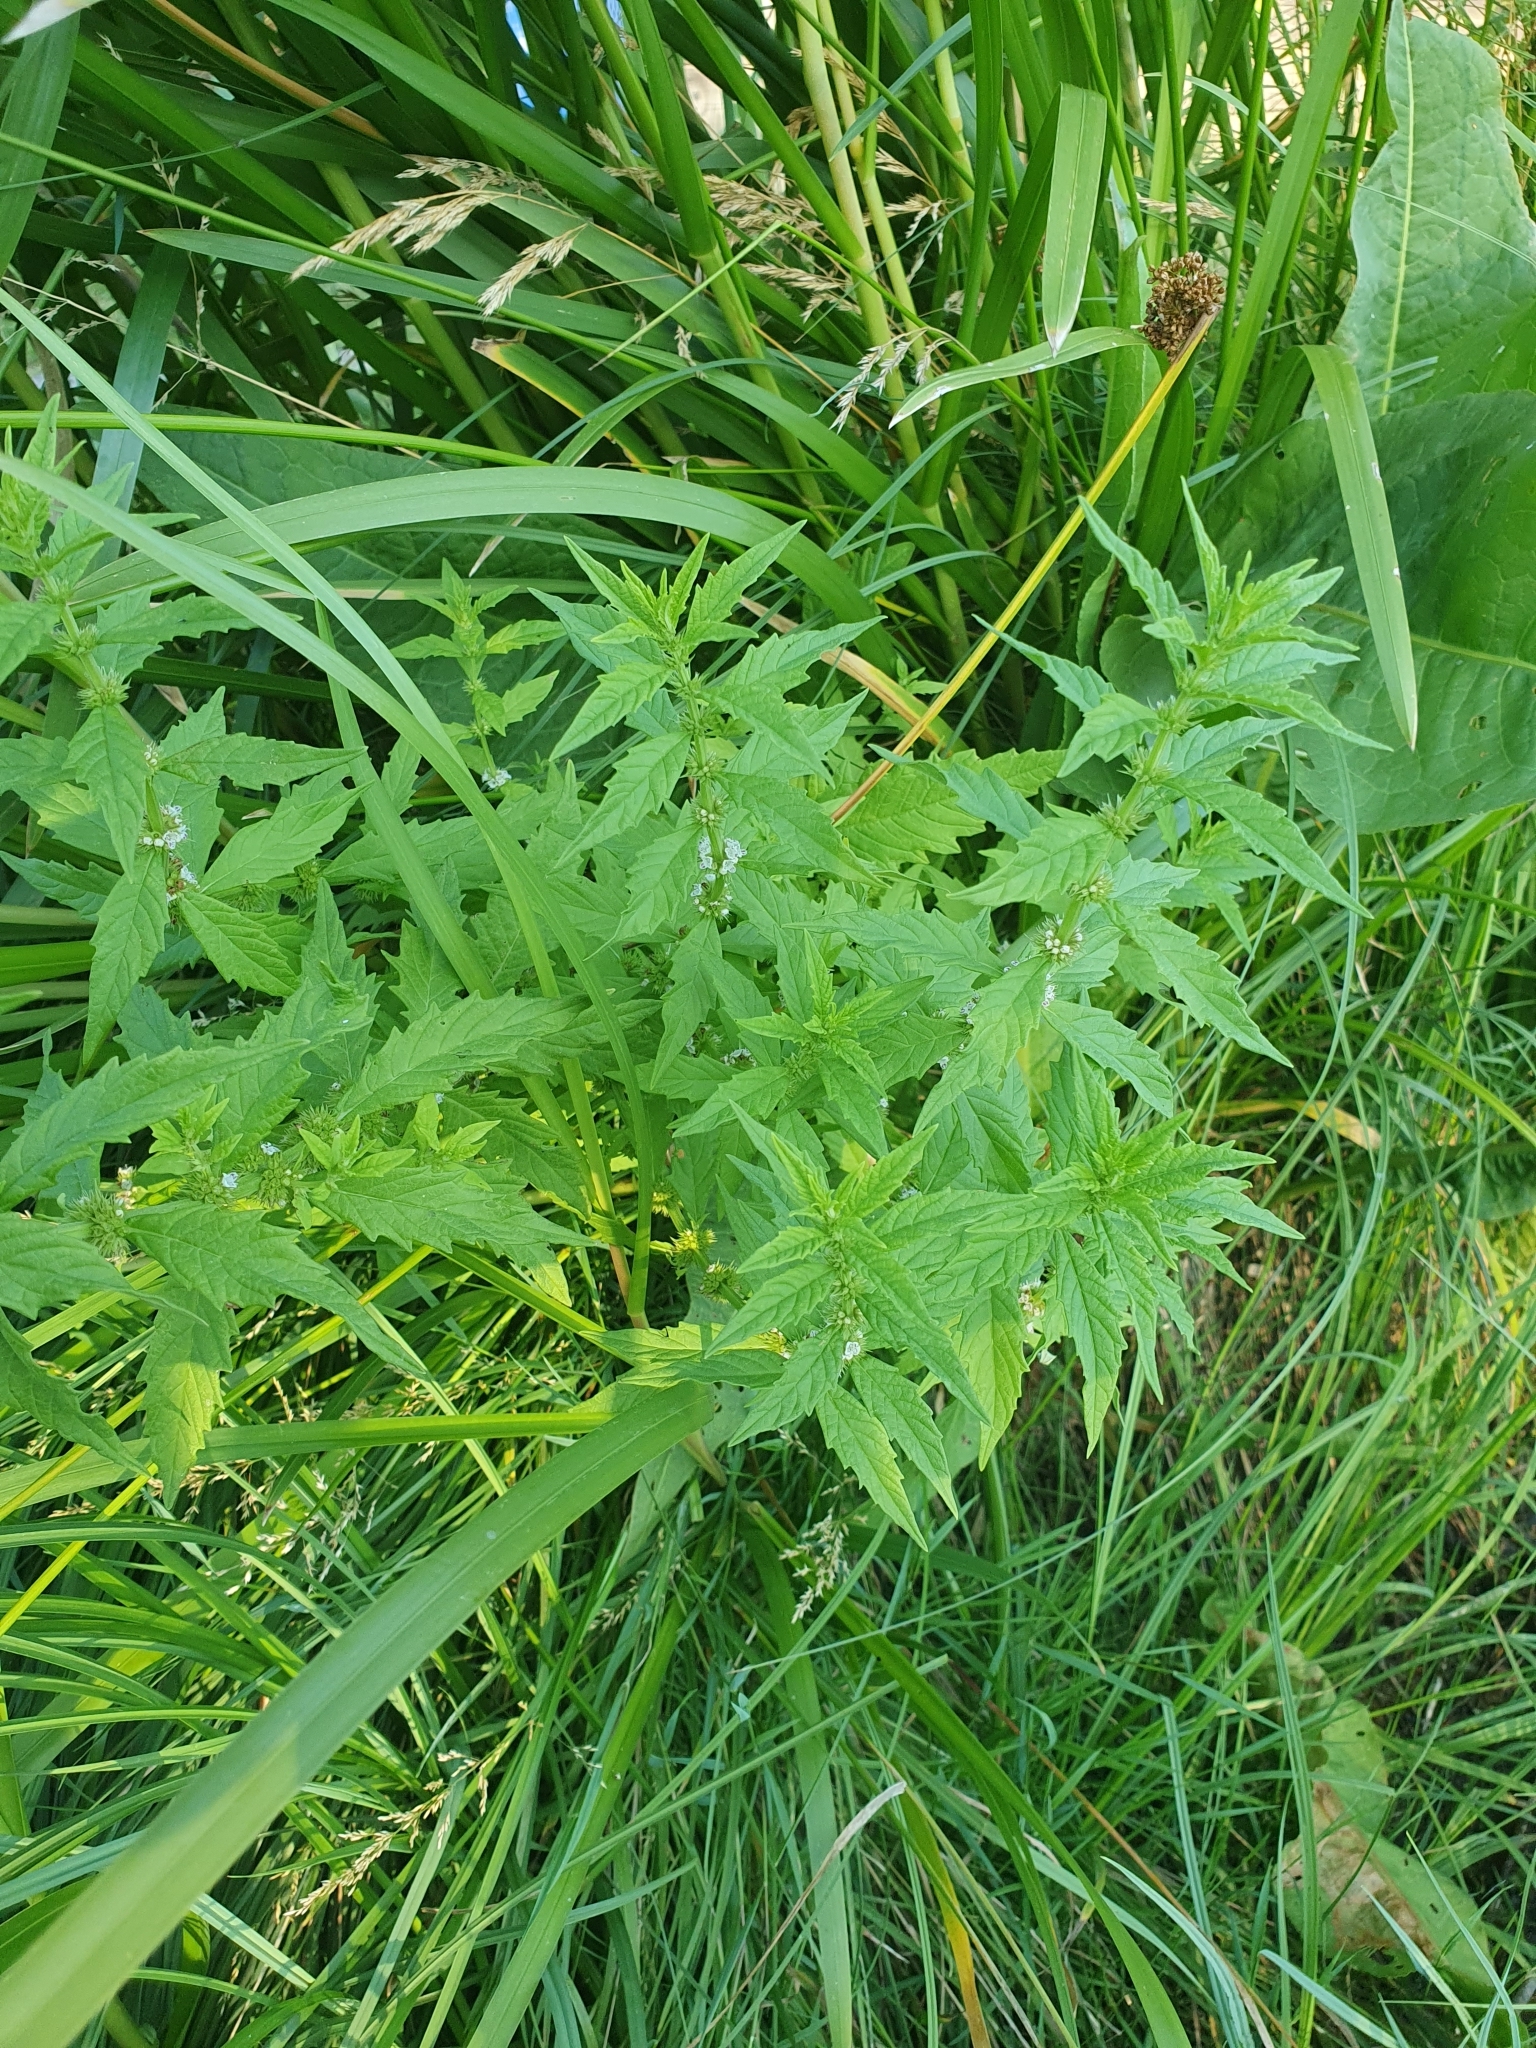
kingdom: Plantae
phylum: Tracheophyta
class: Magnoliopsida
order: Lamiales
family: Lamiaceae
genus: Lycopus
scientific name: Lycopus europaeus
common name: European bugleweed
